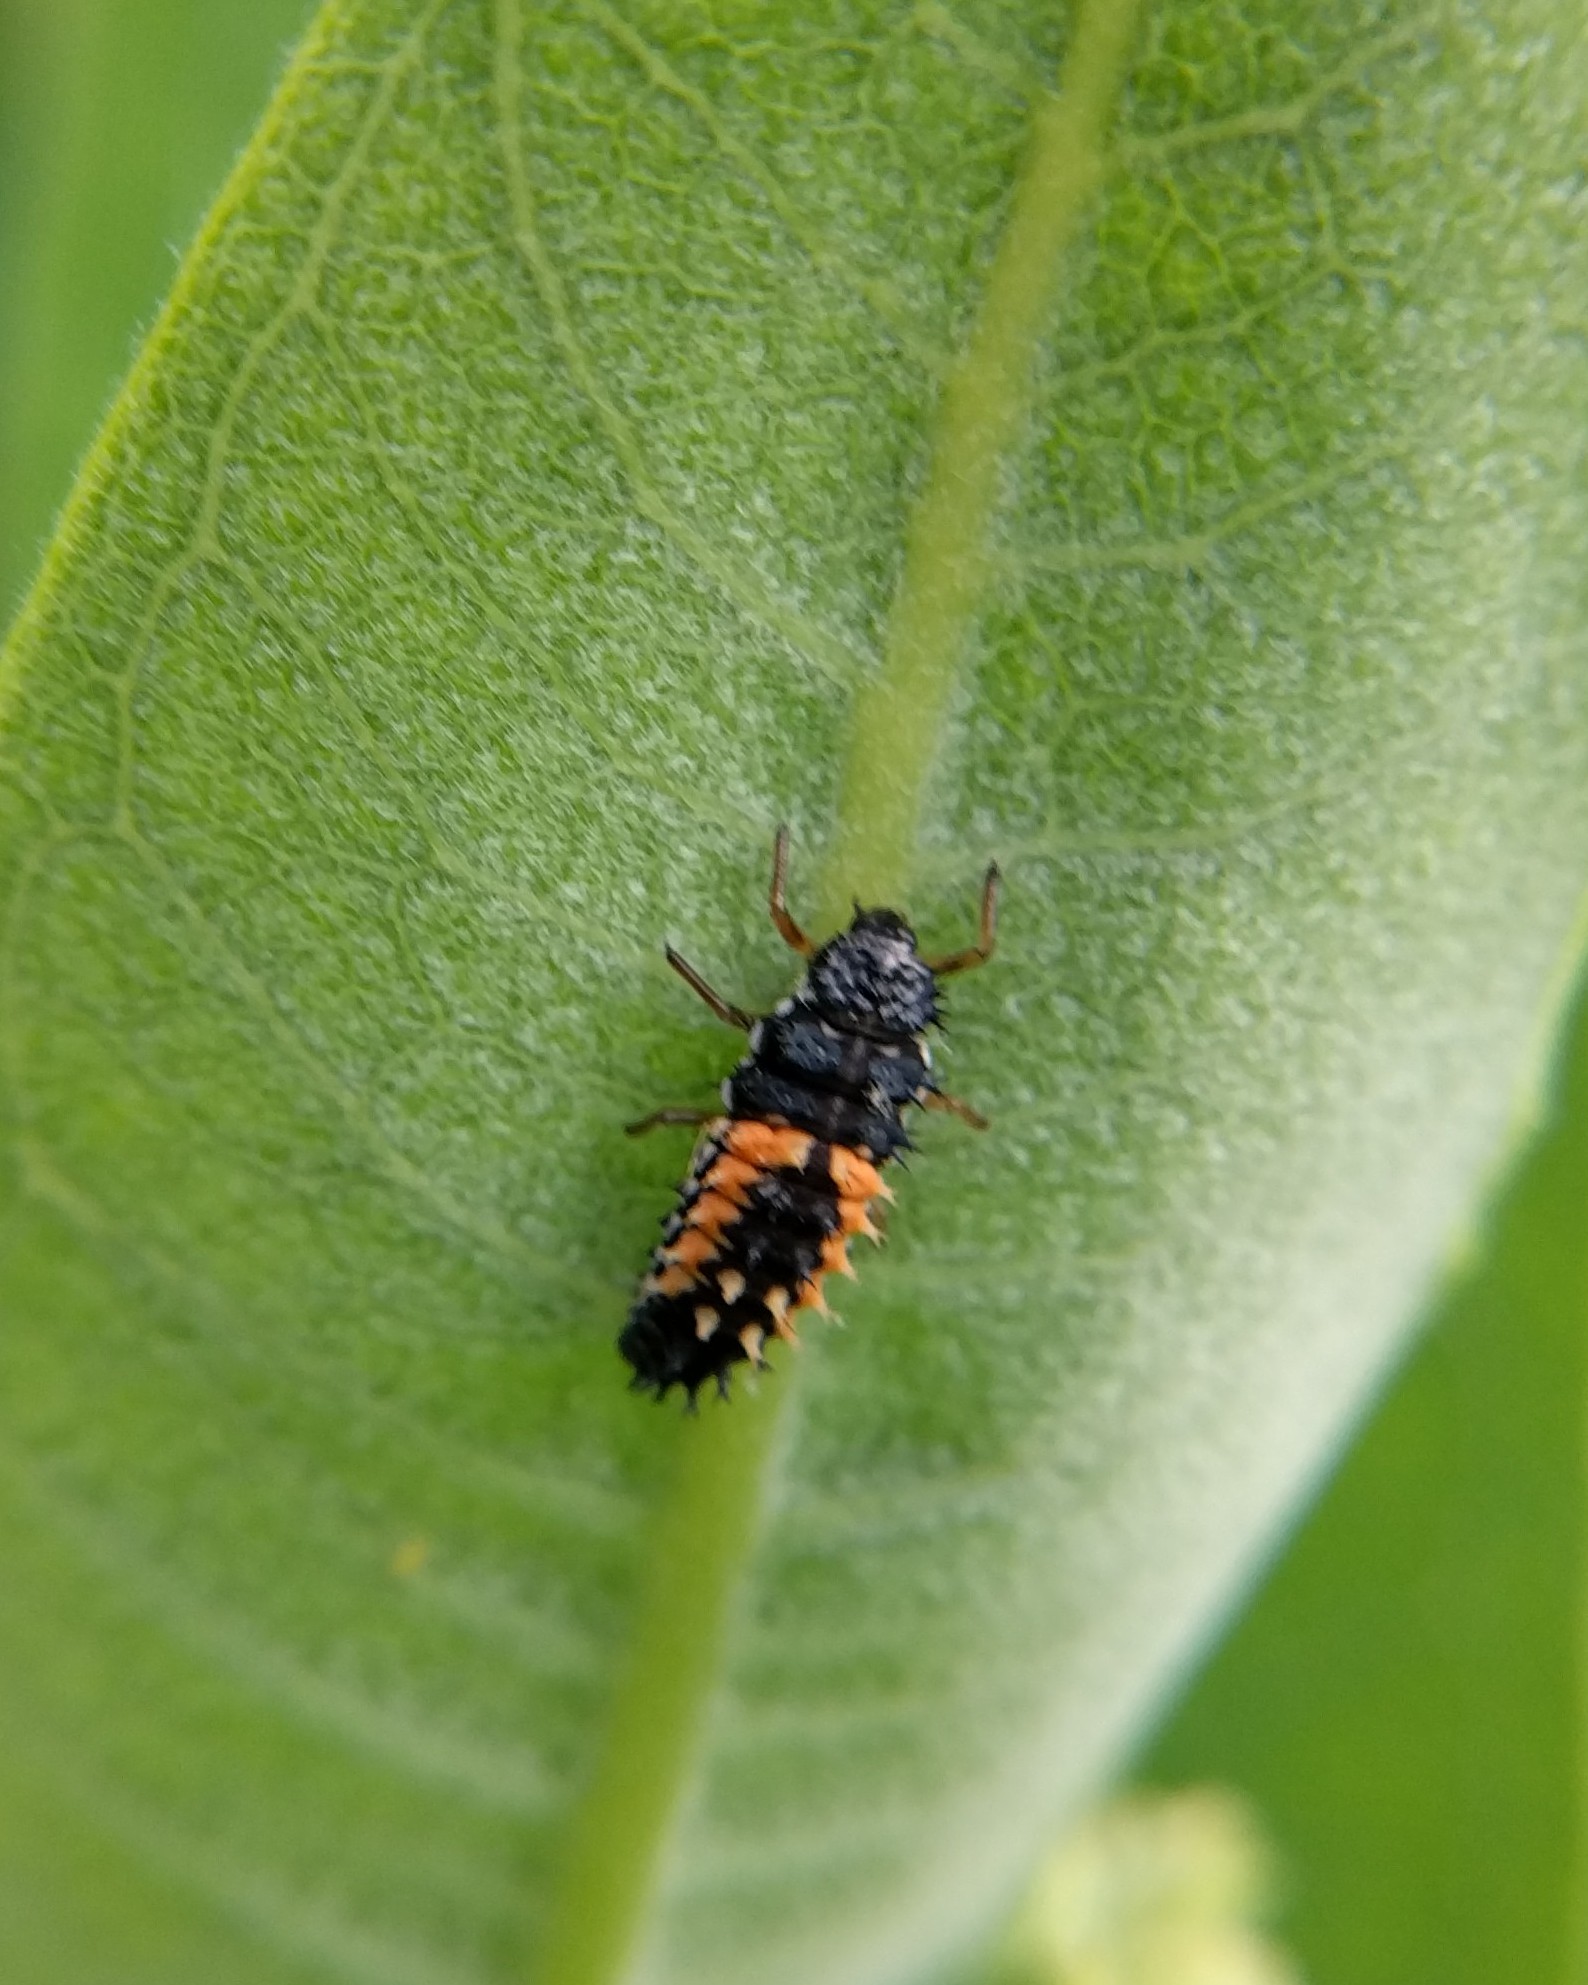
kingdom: Animalia
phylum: Arthropoda
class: Insecta
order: Coleoptera
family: Coccinellidae
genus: Harmonia
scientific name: Harmonia axyridis
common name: Harlequin ladybird
